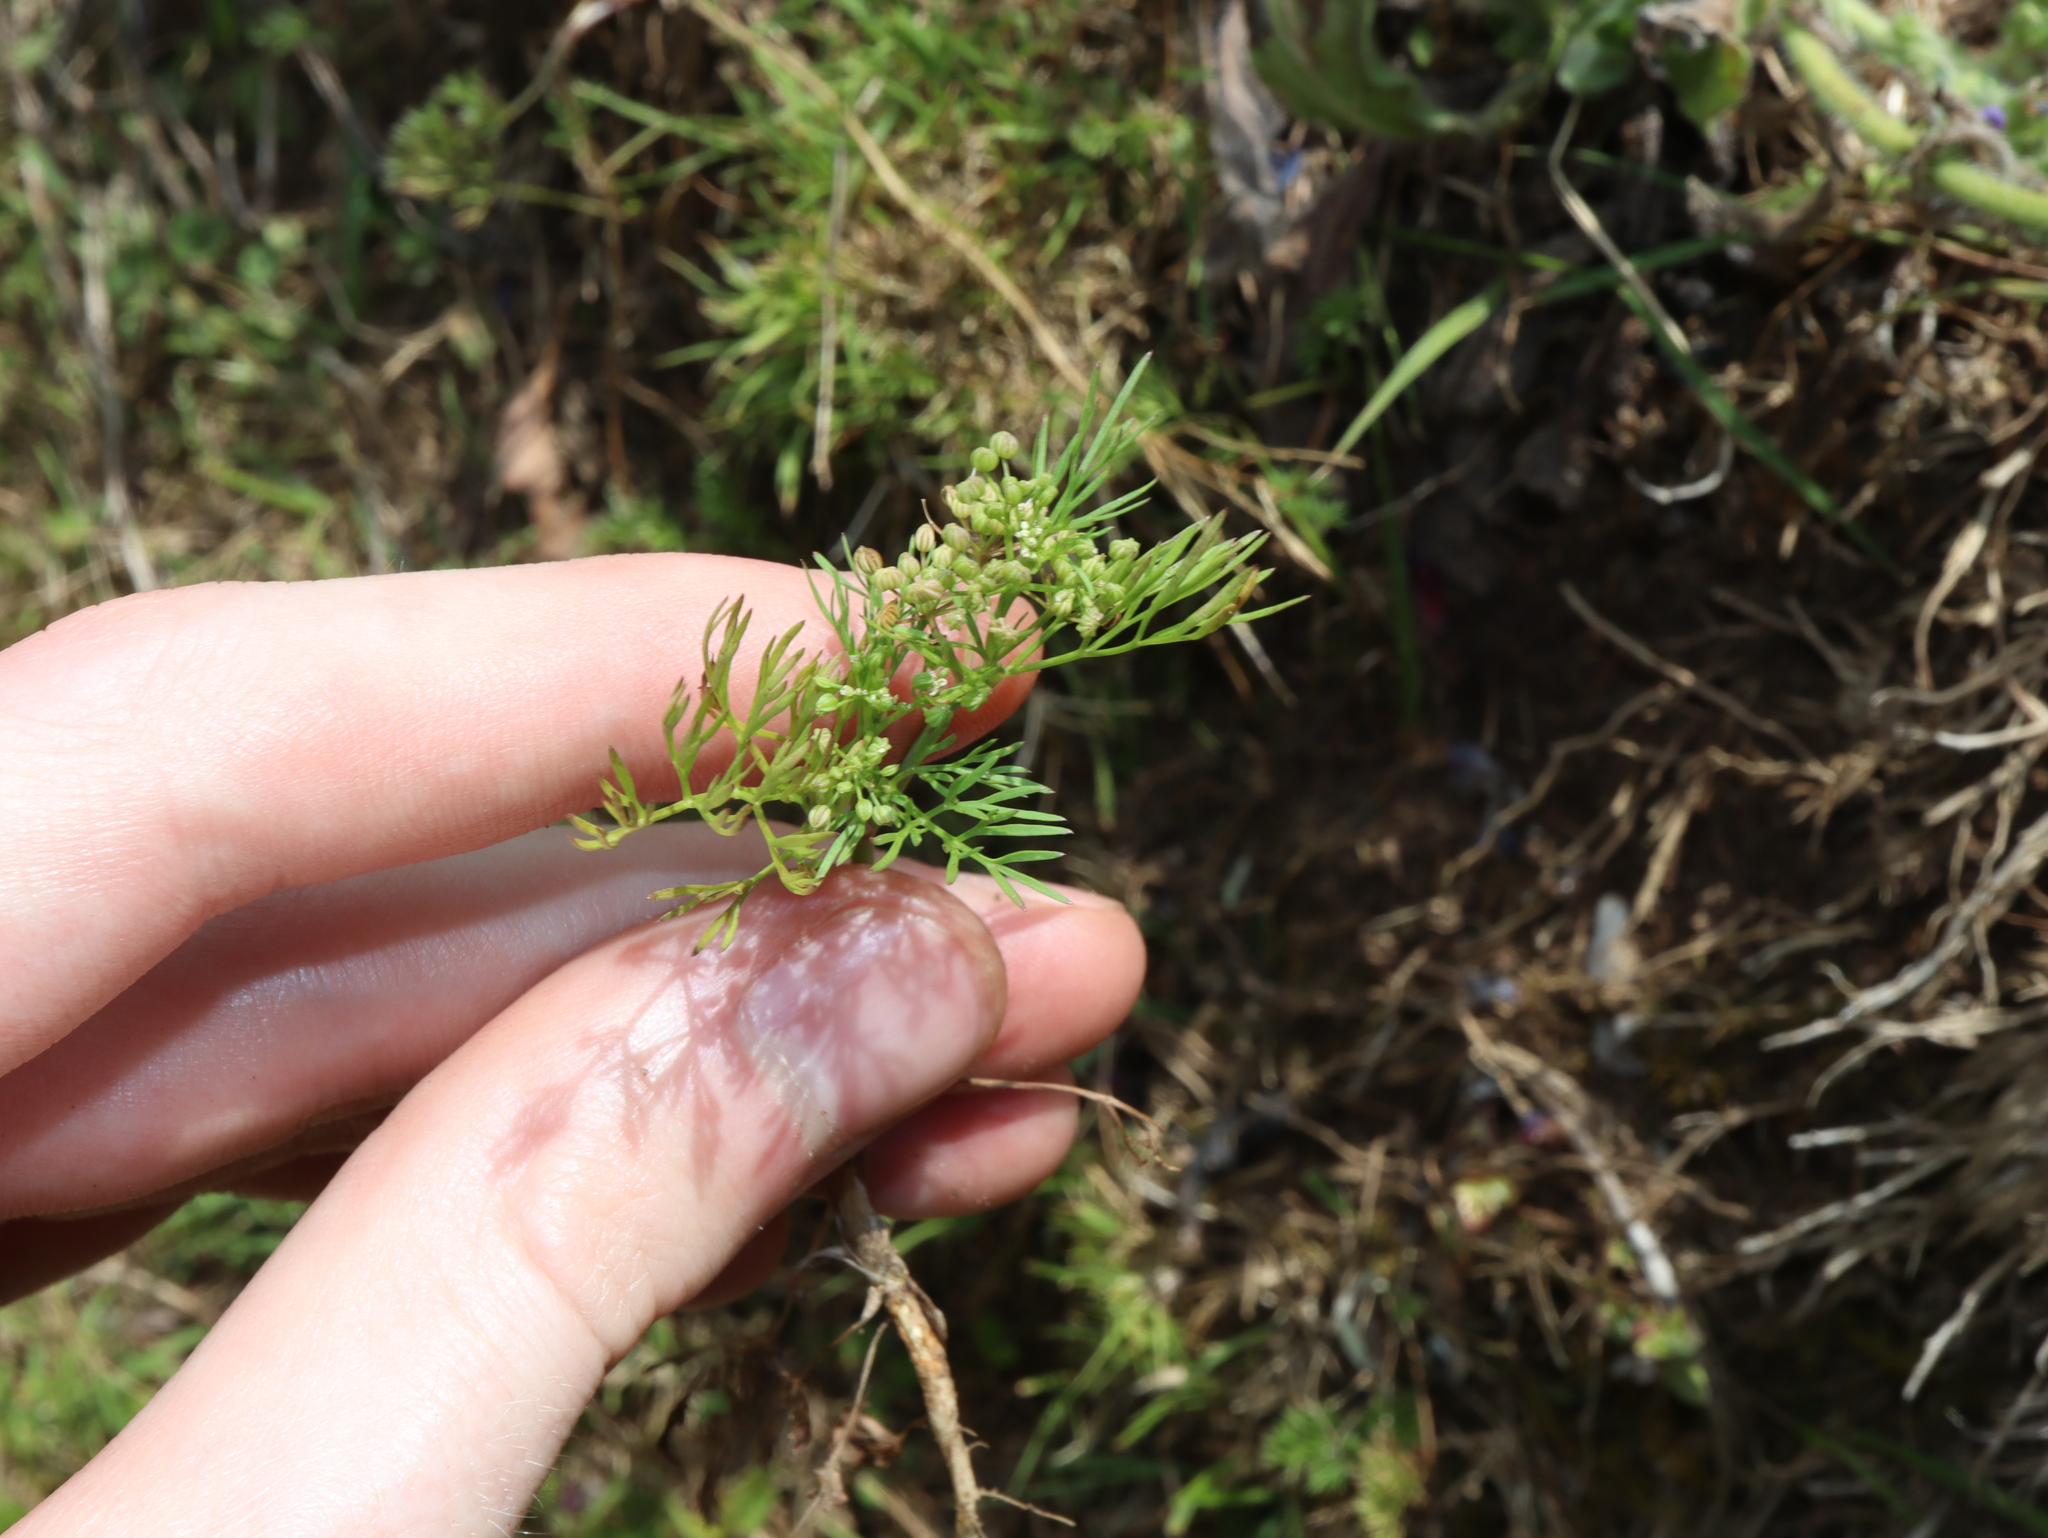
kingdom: Plantae
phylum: Tracheophyta
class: Magnoliopsida
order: Apiales
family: Apiaceae
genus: Cyclospermum
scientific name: Cyclospermum leptophyllum
